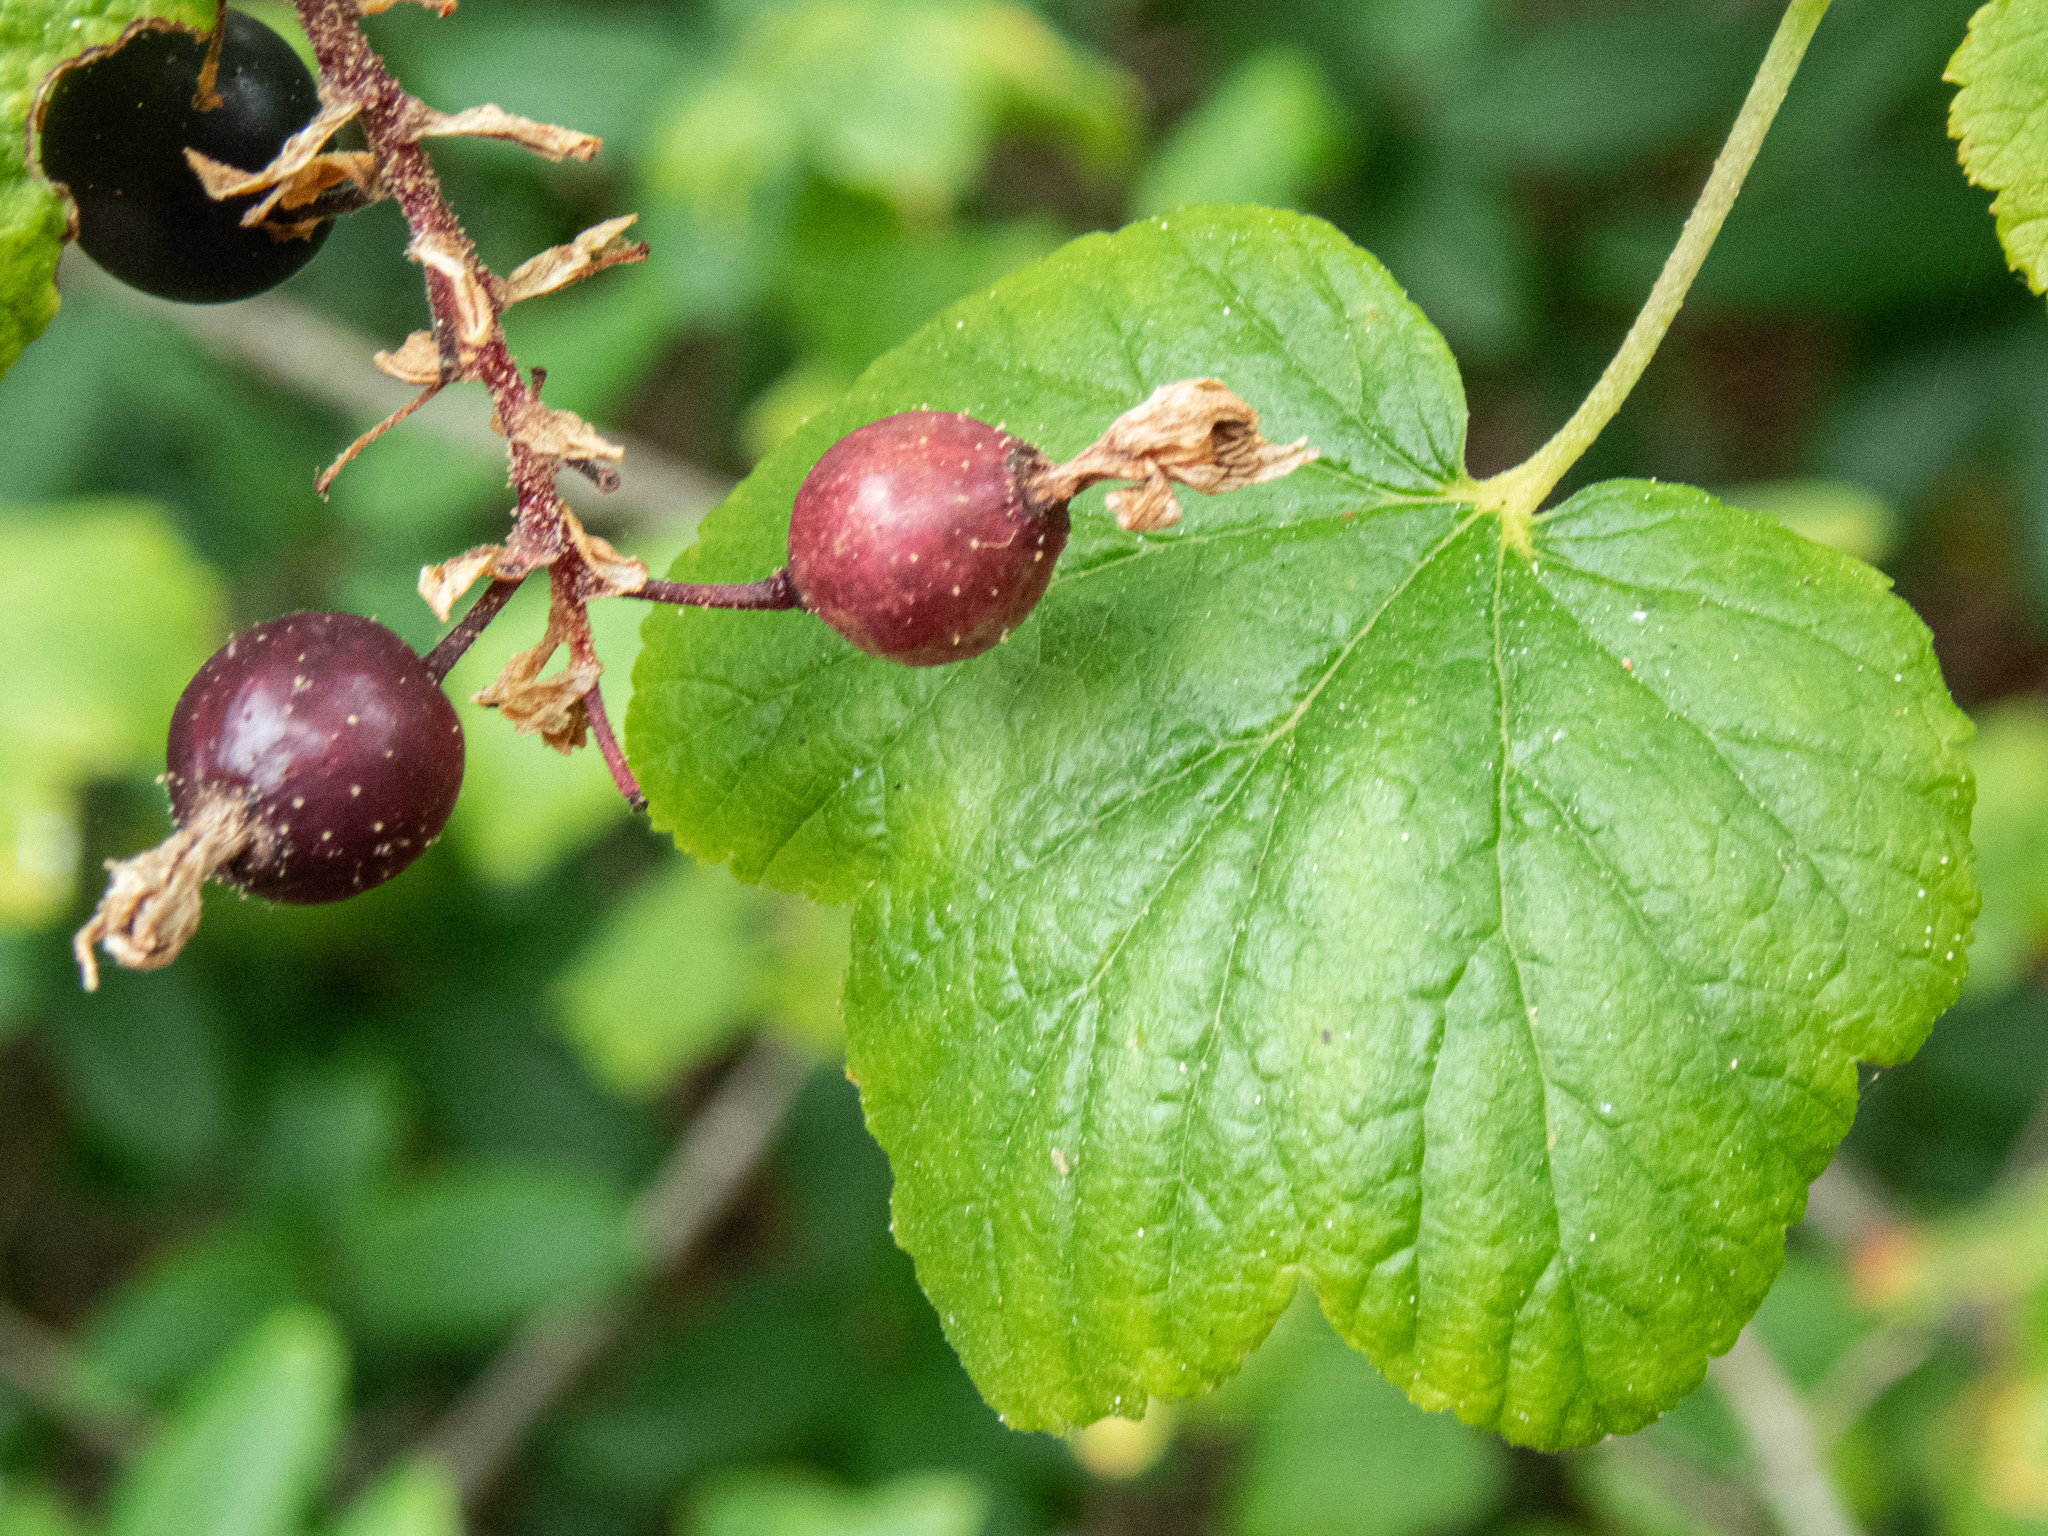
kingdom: Plantae
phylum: Tracheophyta
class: Magnoliopsida
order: Saxifragales
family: Grossulariaceae
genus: Ribes
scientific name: Ribes sanguineum
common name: Flowering currant
